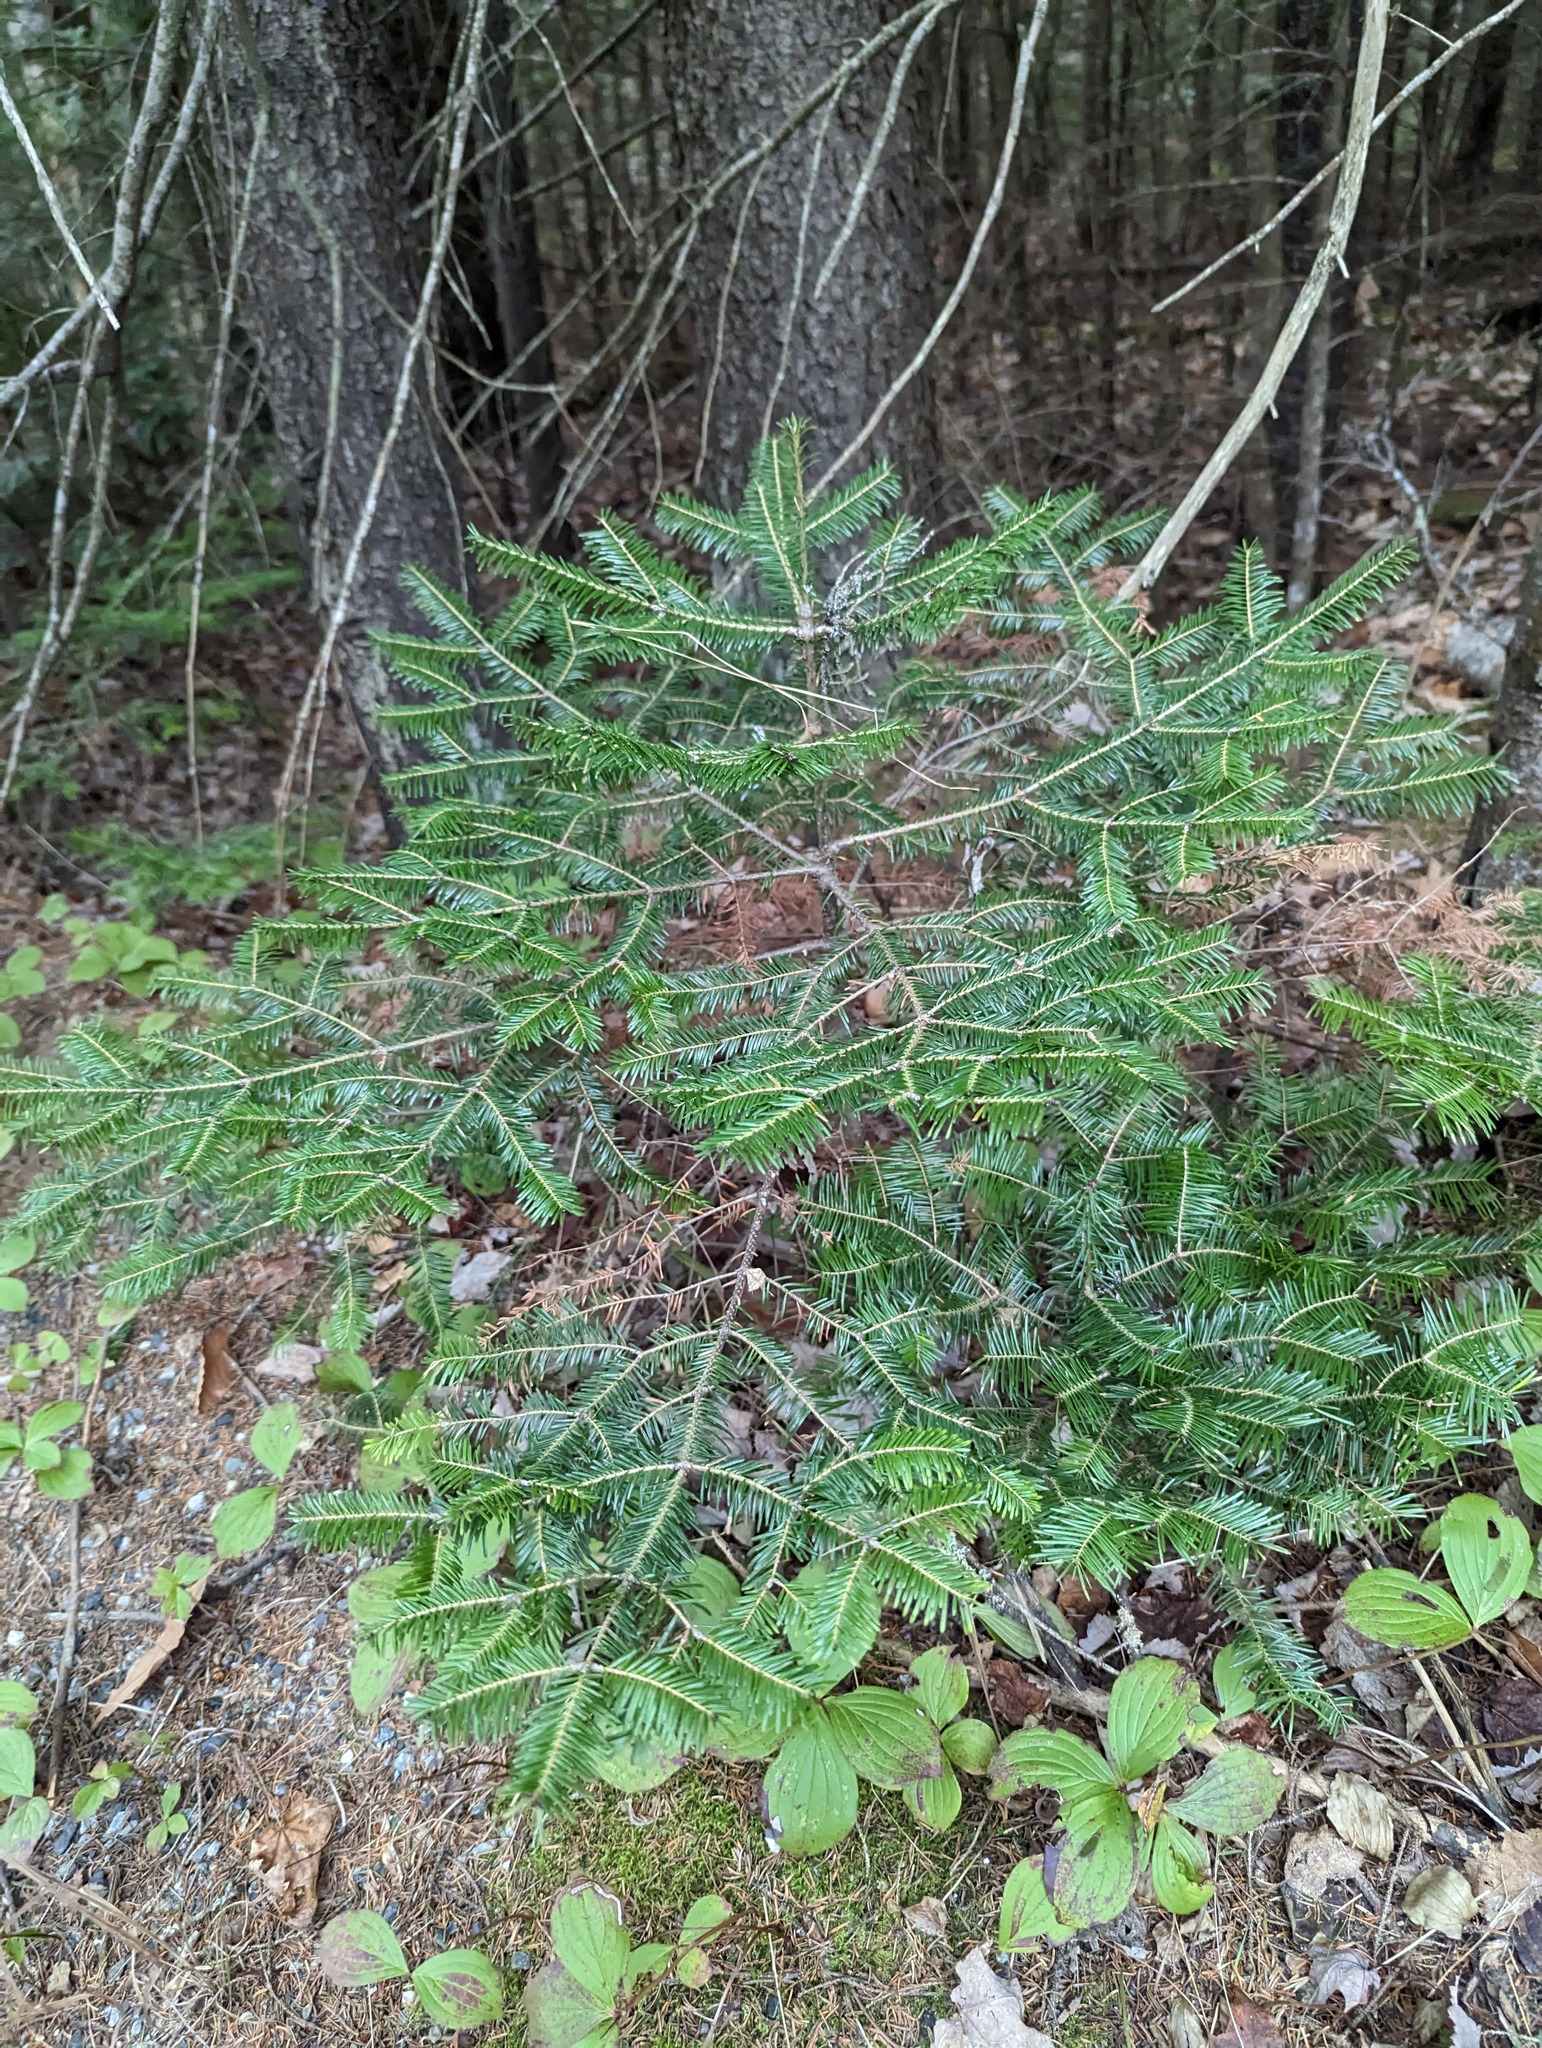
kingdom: Plantae
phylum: Tracheophyta
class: Pinopsida
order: Pinales
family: Pinaceae
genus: Abies
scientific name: Abies balsamea
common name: Balsam fir
